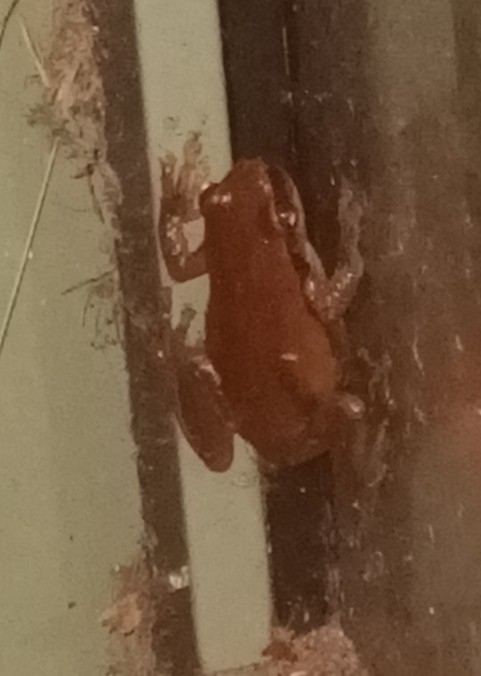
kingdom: Animalia
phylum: Chordata
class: Amphibia
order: Anura
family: Pelodryadidae
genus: Litoria
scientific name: Litoria rubella
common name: Desert tree frog
